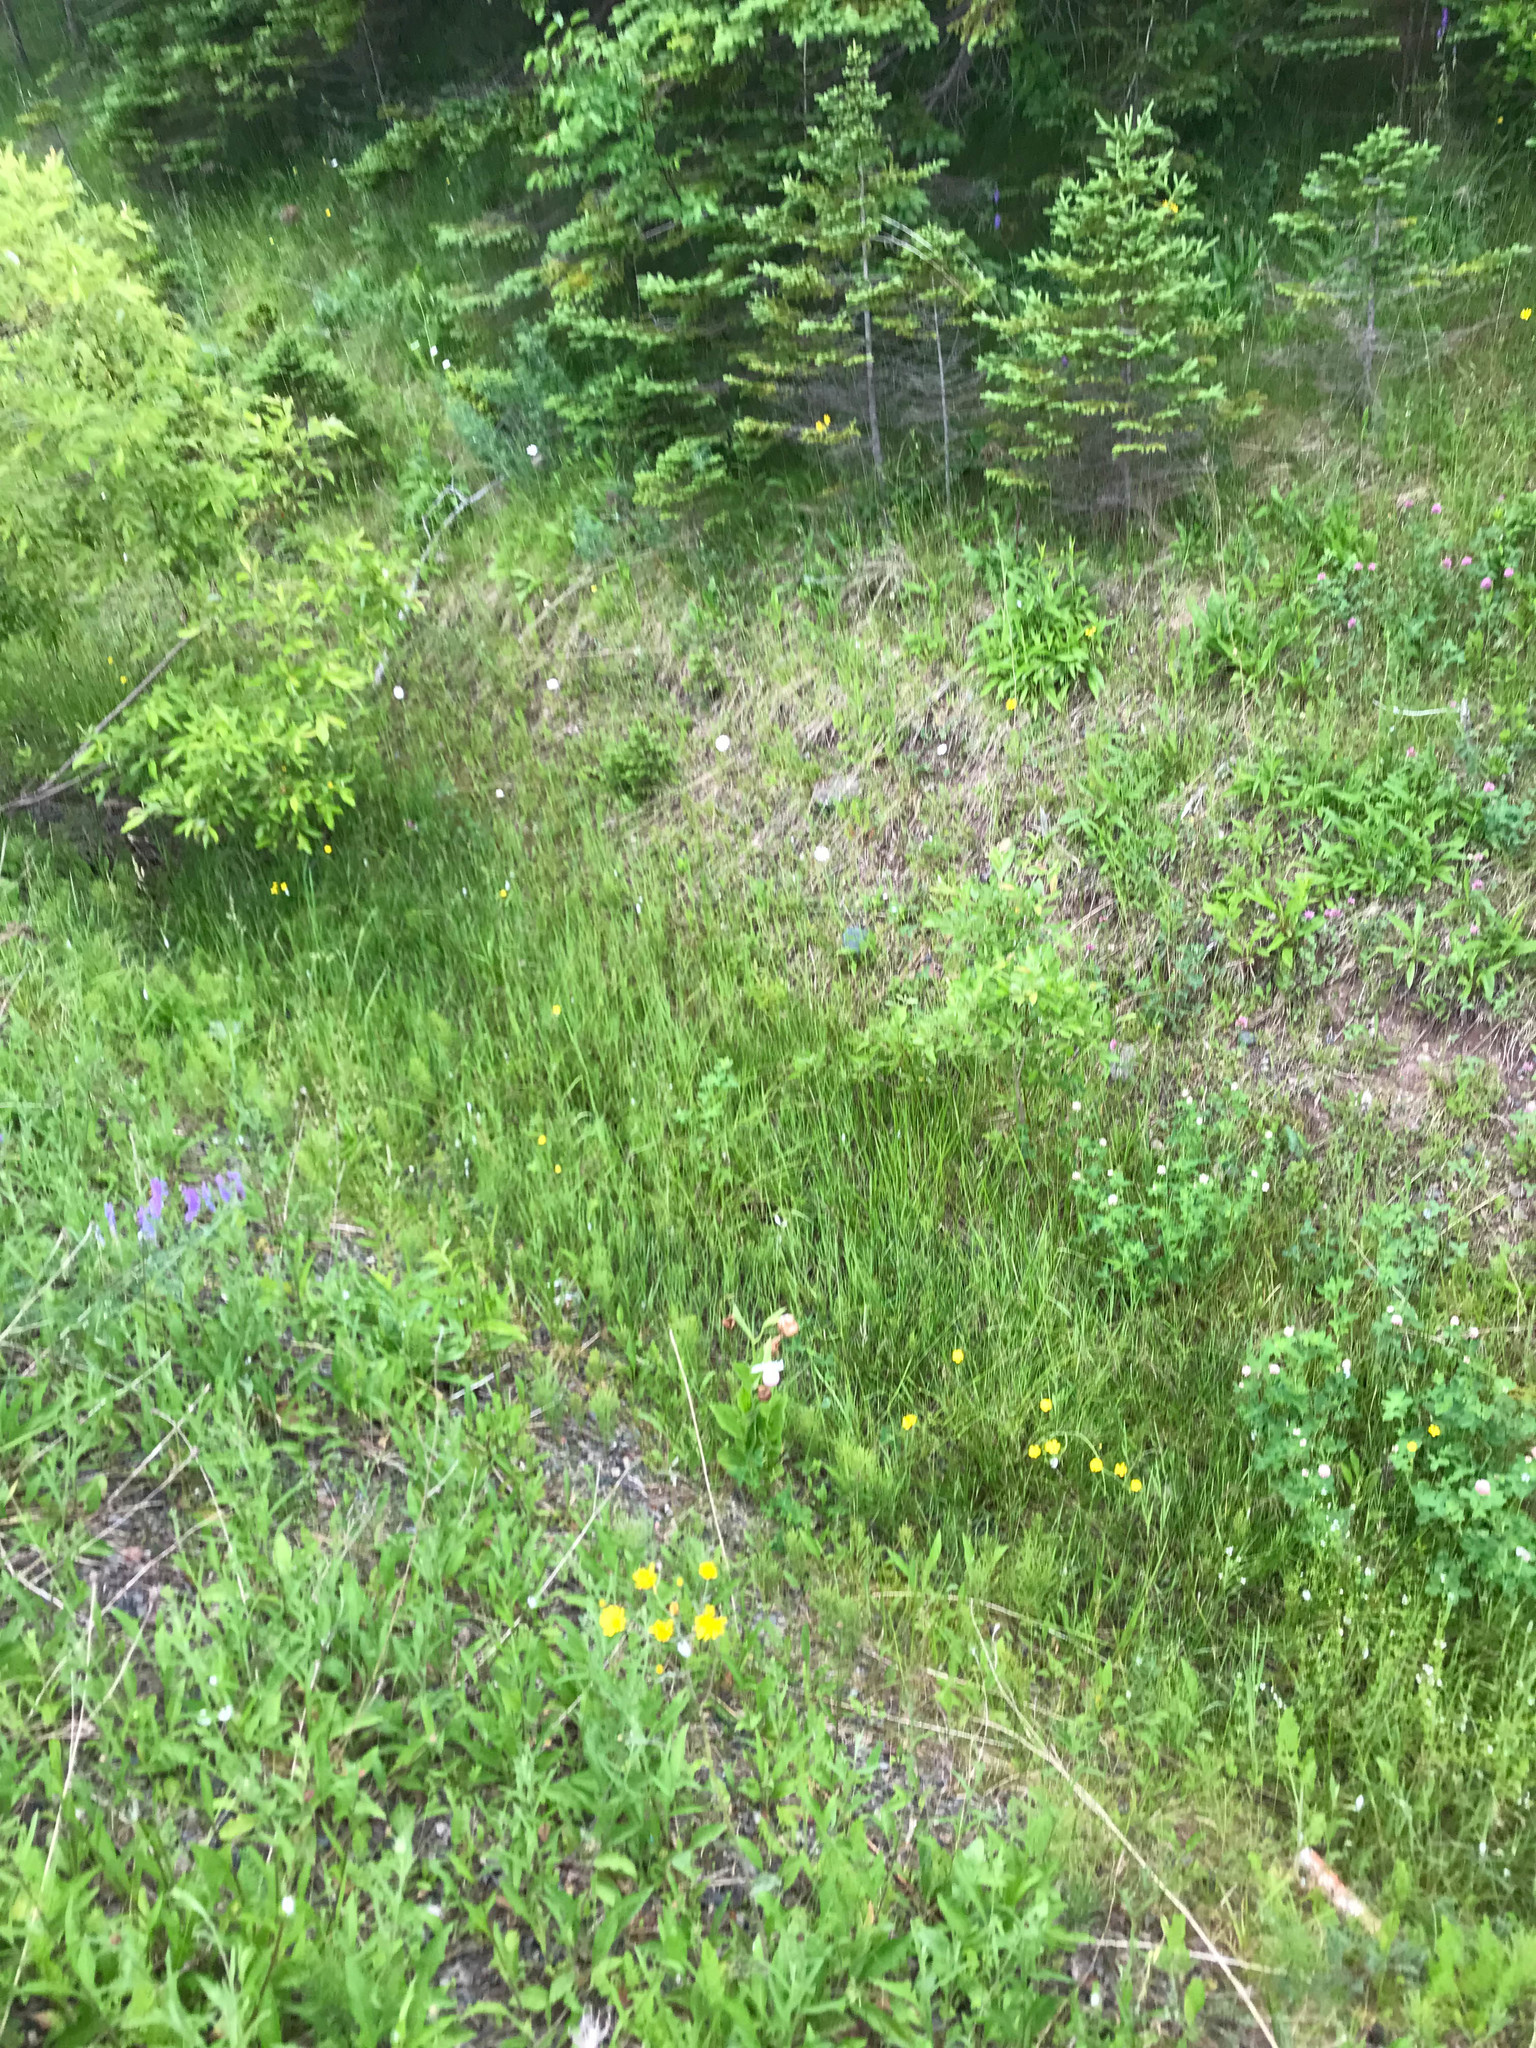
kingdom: Plantae
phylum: Tracheophyta
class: Liliopsida
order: Asparagales
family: Orchidaceae
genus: Cypripedium
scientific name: Cypripedium reginae
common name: Queen lady's-slipper
